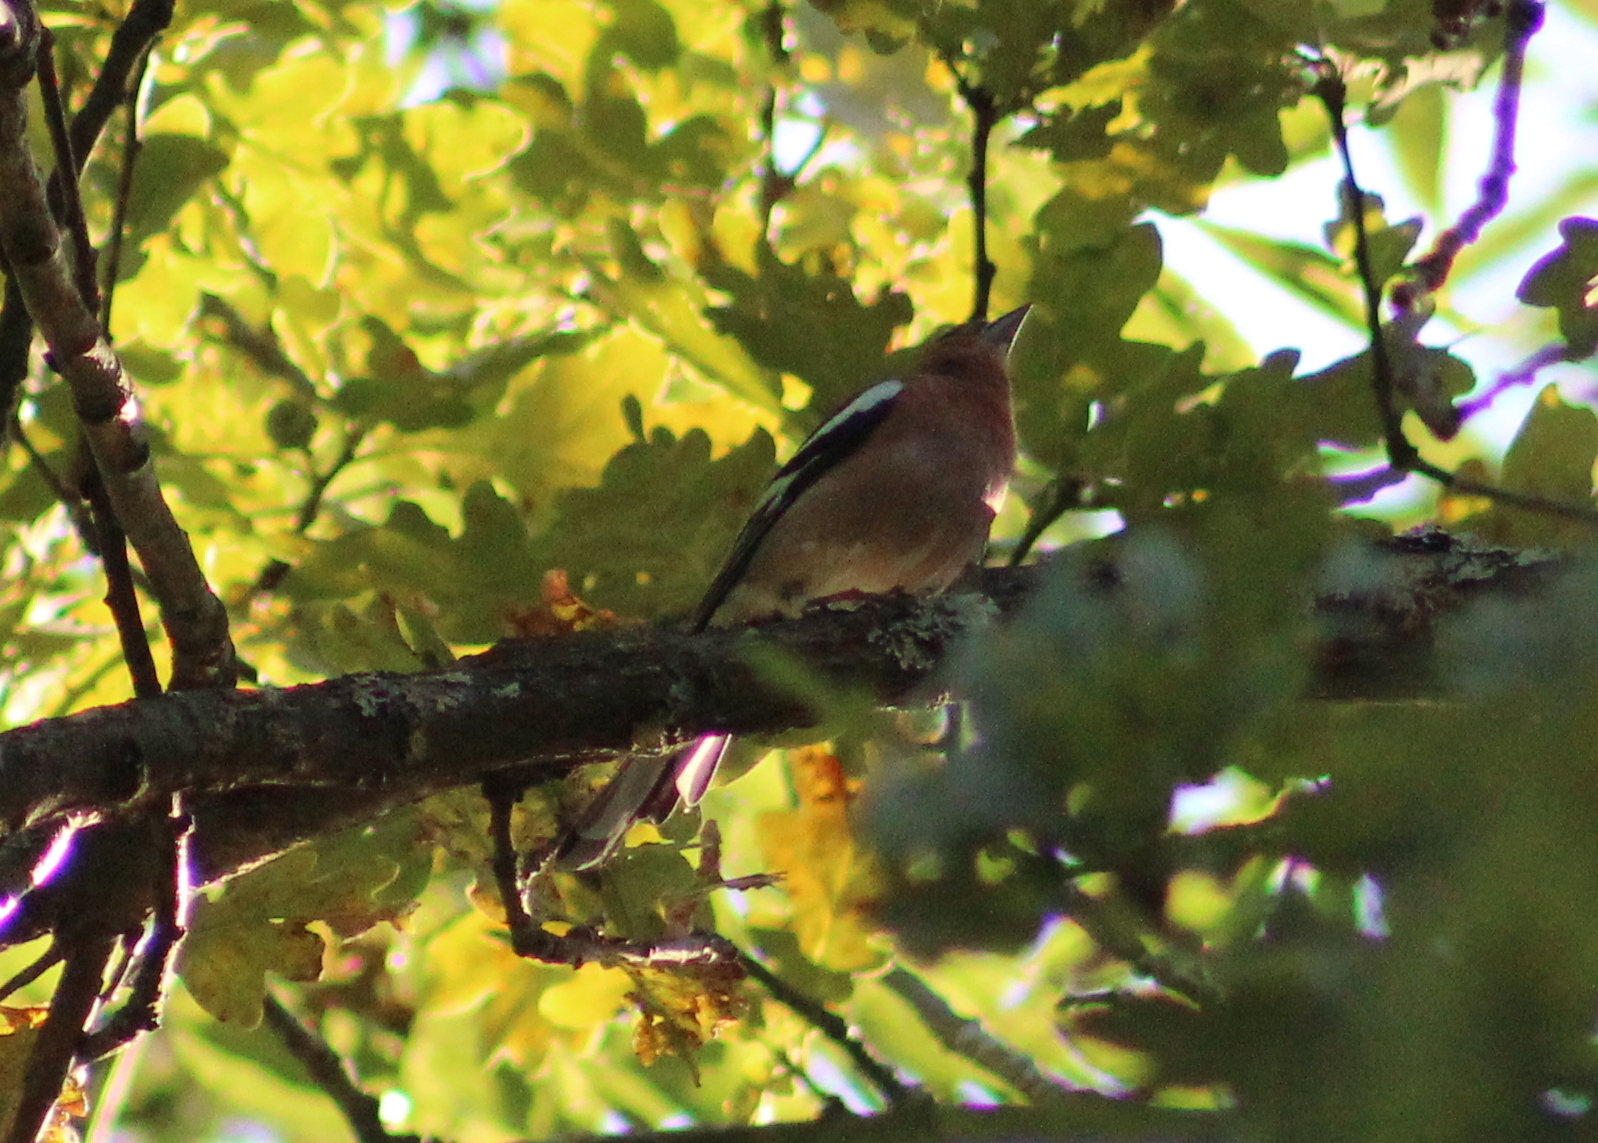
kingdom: Animalia
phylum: Chordata
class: Aves
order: Passeriformes
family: Fringillidae
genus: Fringilla
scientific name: Fringilla coelebs
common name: Common chaffinch
